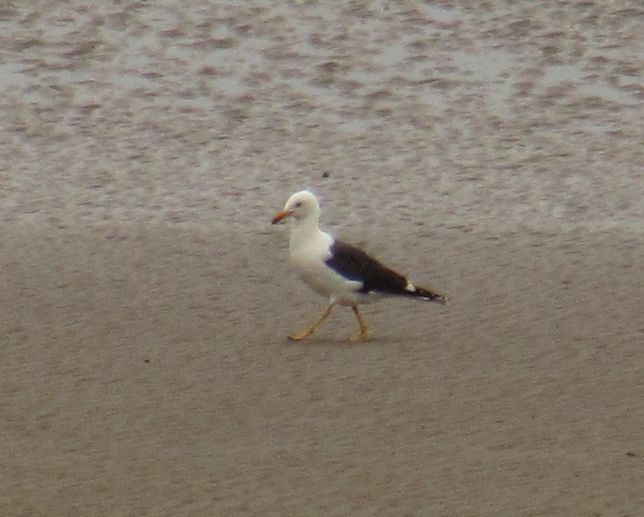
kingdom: Animalia
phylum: Chordata
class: Aves
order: Charadriiformes
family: Laridae
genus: Larus
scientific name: Larus fuscus
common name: Lesser black-backed gull
